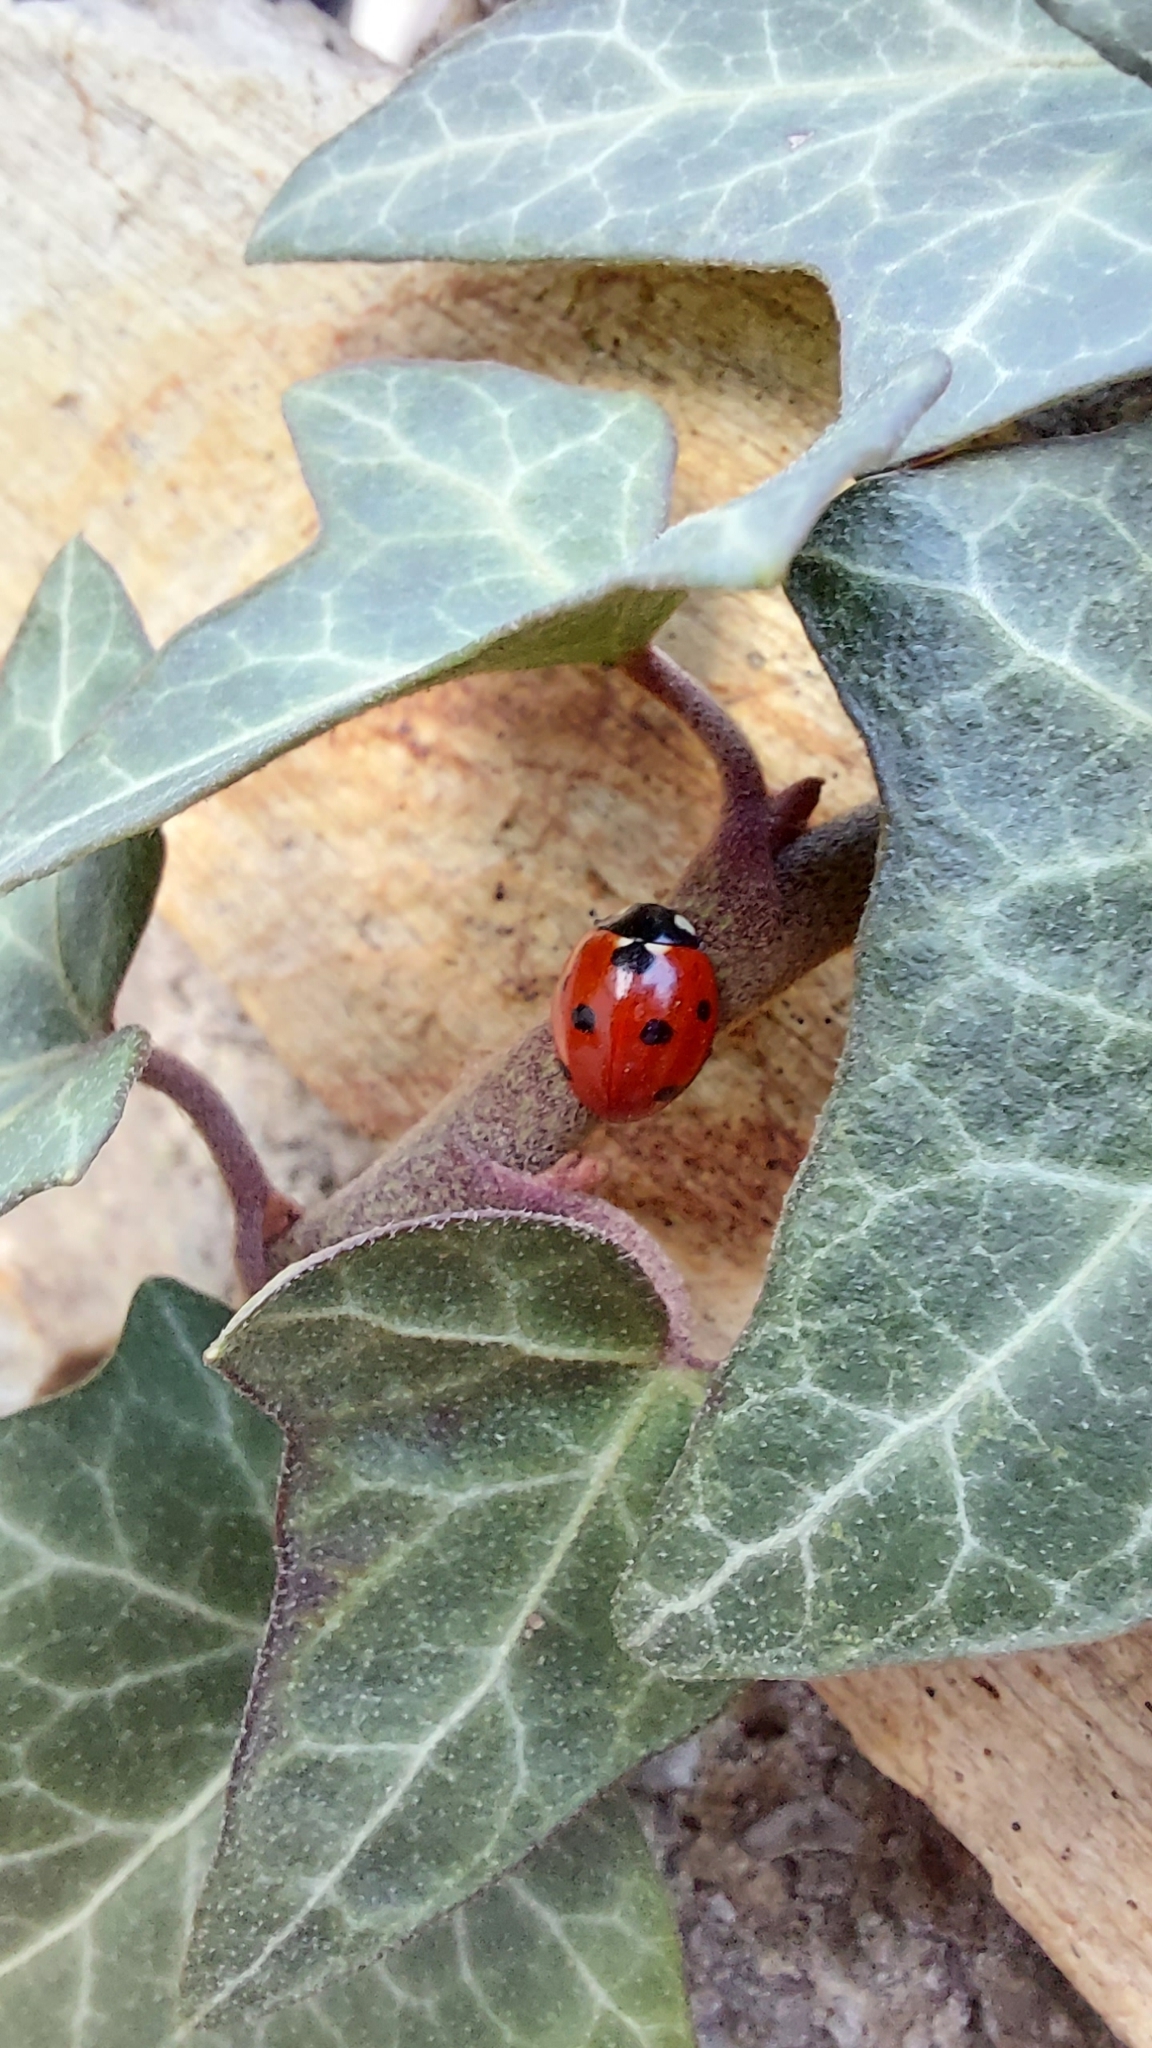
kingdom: Animalia
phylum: Arthropoda
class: Insecta
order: Coleoptera
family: Coccinellidae
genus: Coccinella
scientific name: Coccinella septempunctata
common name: Sevenspotted lady beetle
